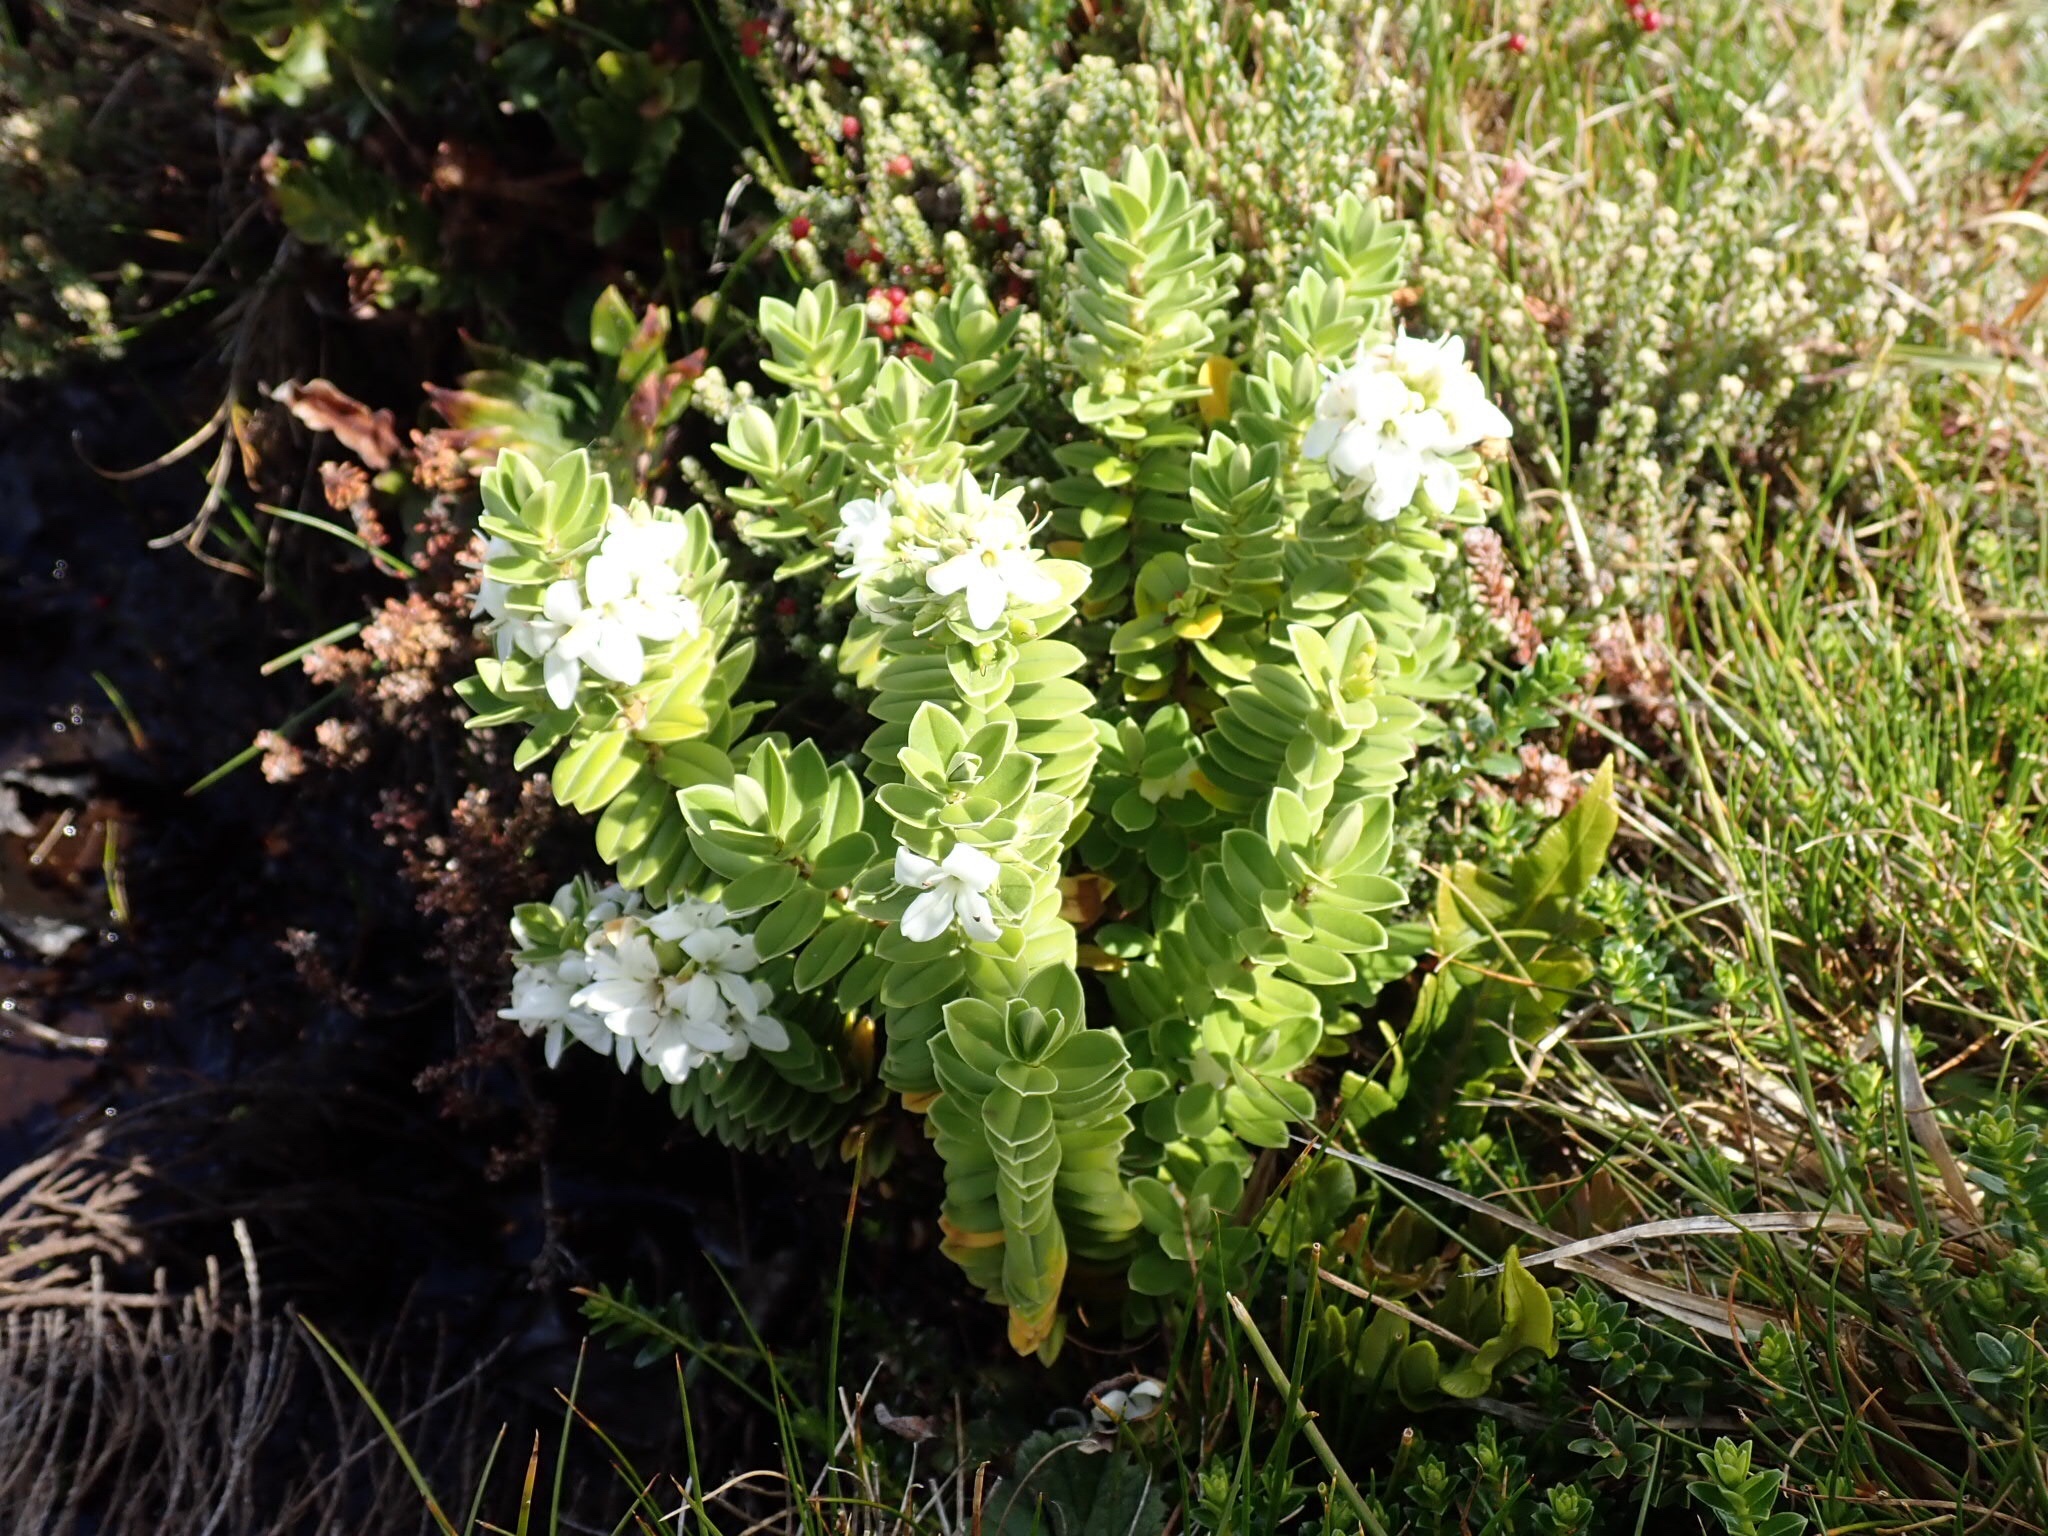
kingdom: Plantae
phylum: Tracheophyta
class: Magnoliopsida
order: Lamiales
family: Plantaginaceae
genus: Veronica
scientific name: Veronica elliptica
